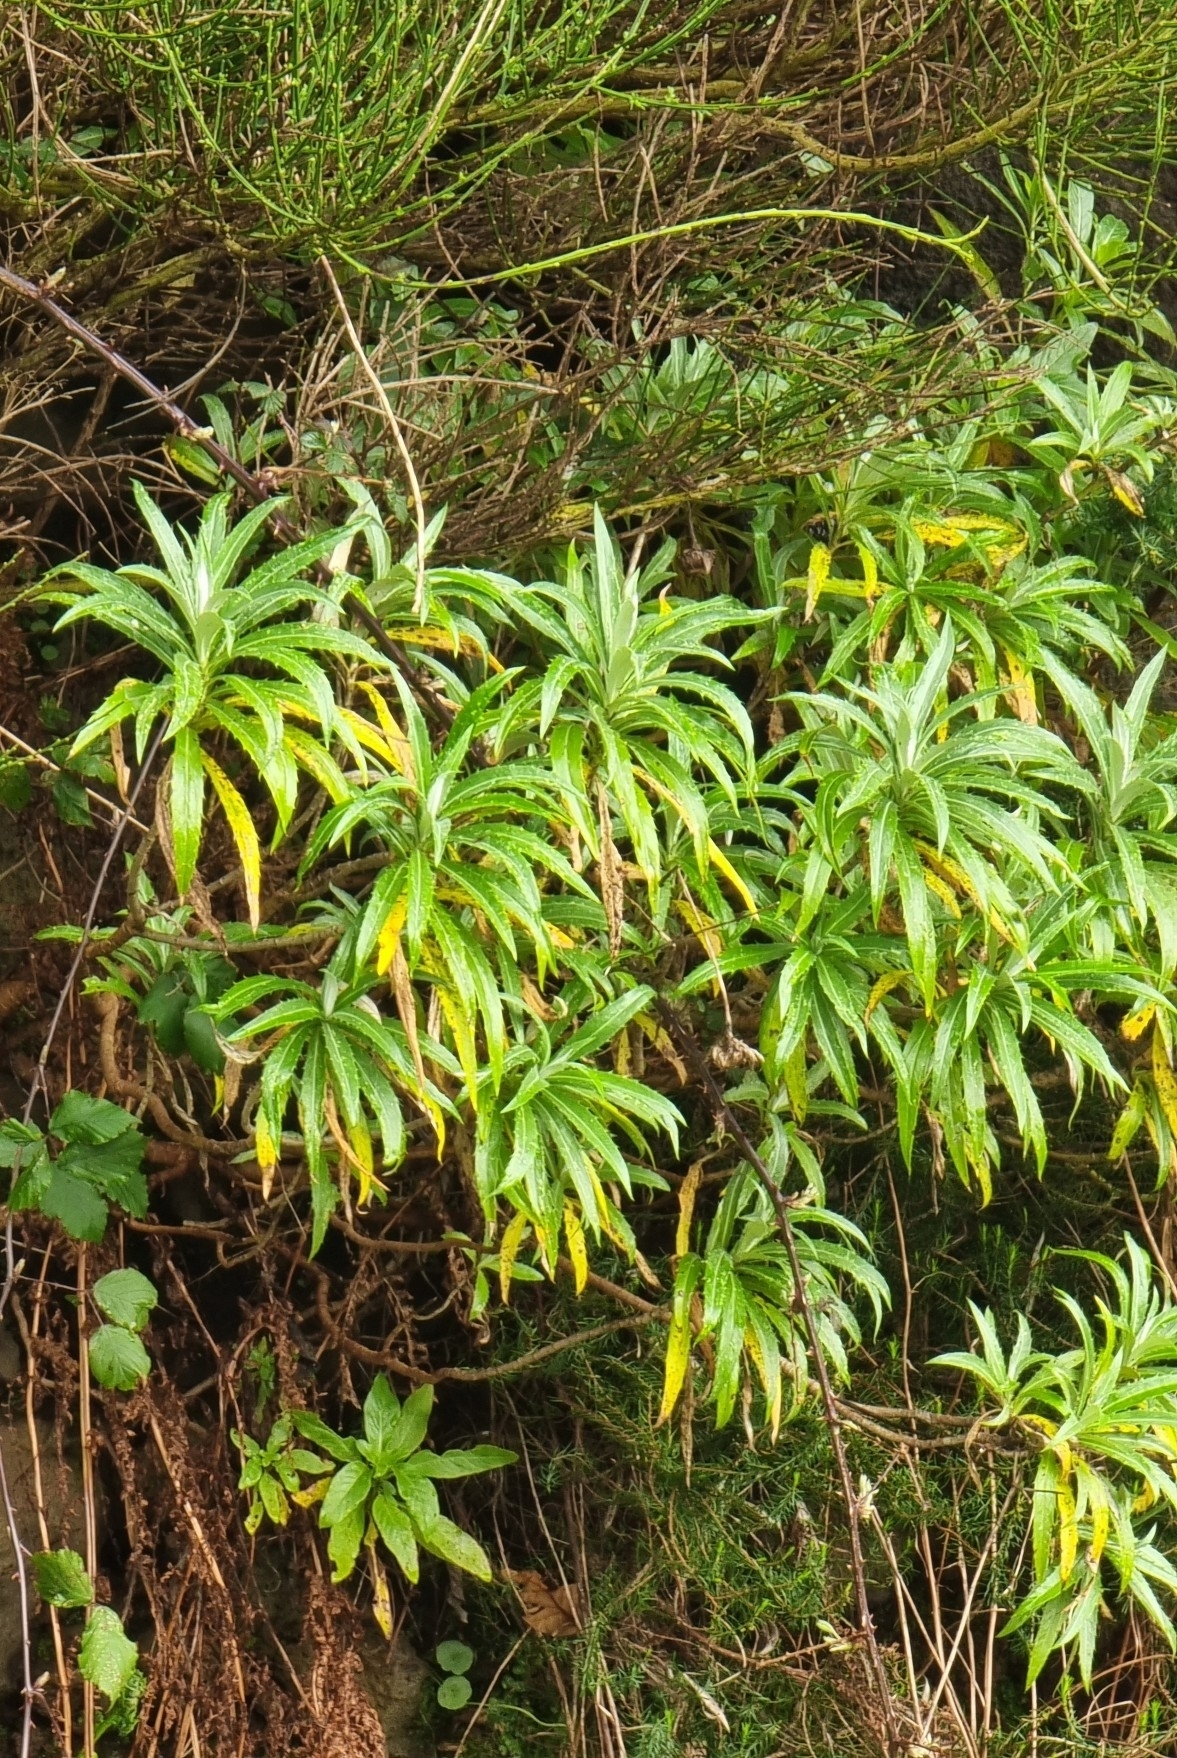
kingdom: Plantae
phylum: Tracheophyta
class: Magnoliopsida
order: Asterales
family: Asteraceae
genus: Carlina
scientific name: Carlina salicifolia
